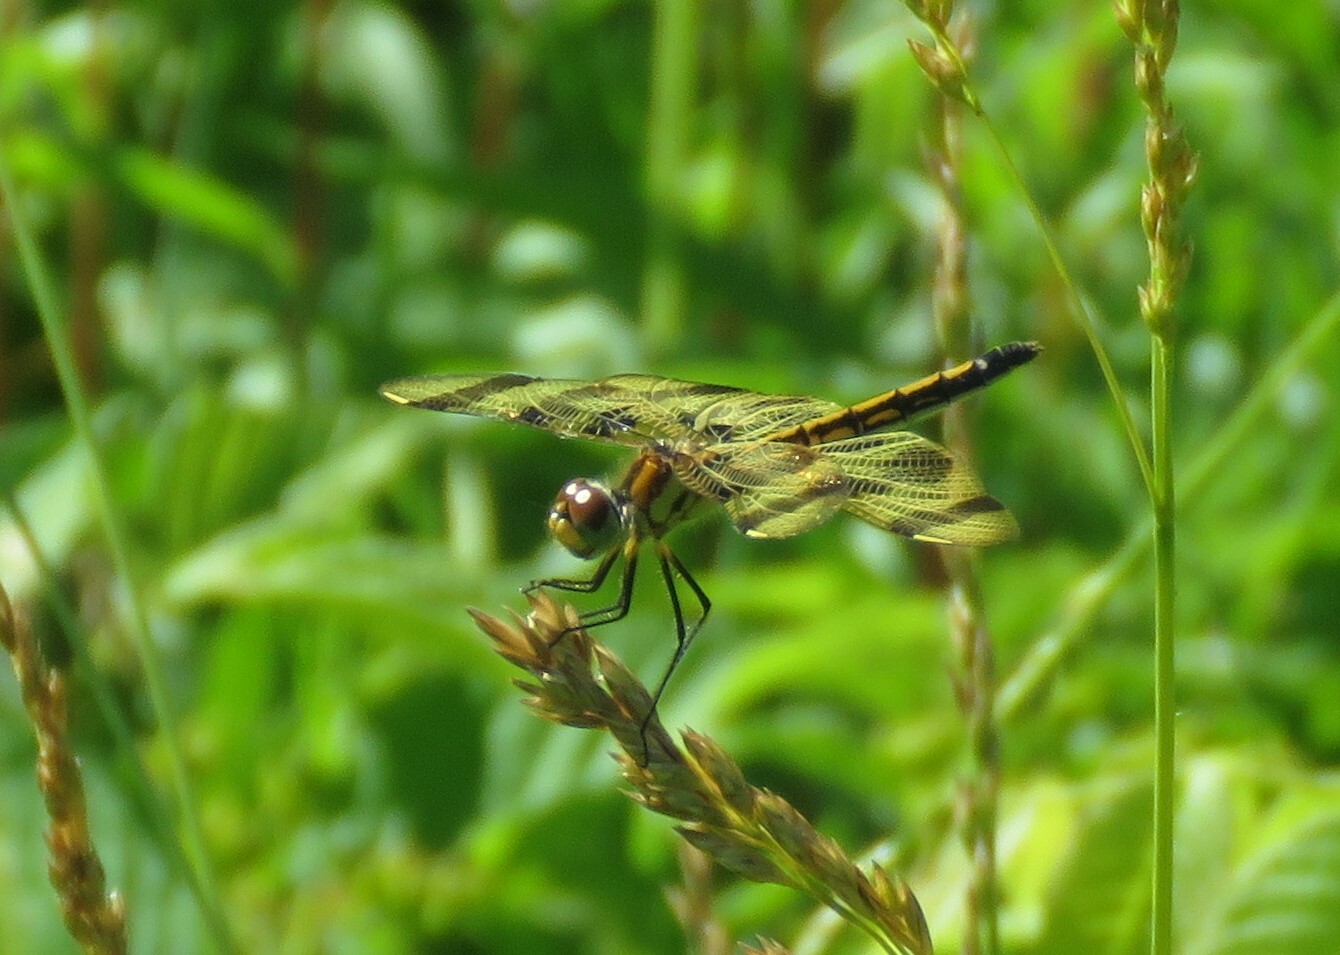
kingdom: Animalia
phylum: Arthropoda
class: Insecta
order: Odonata
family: Libellulidae
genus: Celithemis
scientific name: Celithemis eponina
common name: Halloween pennant
